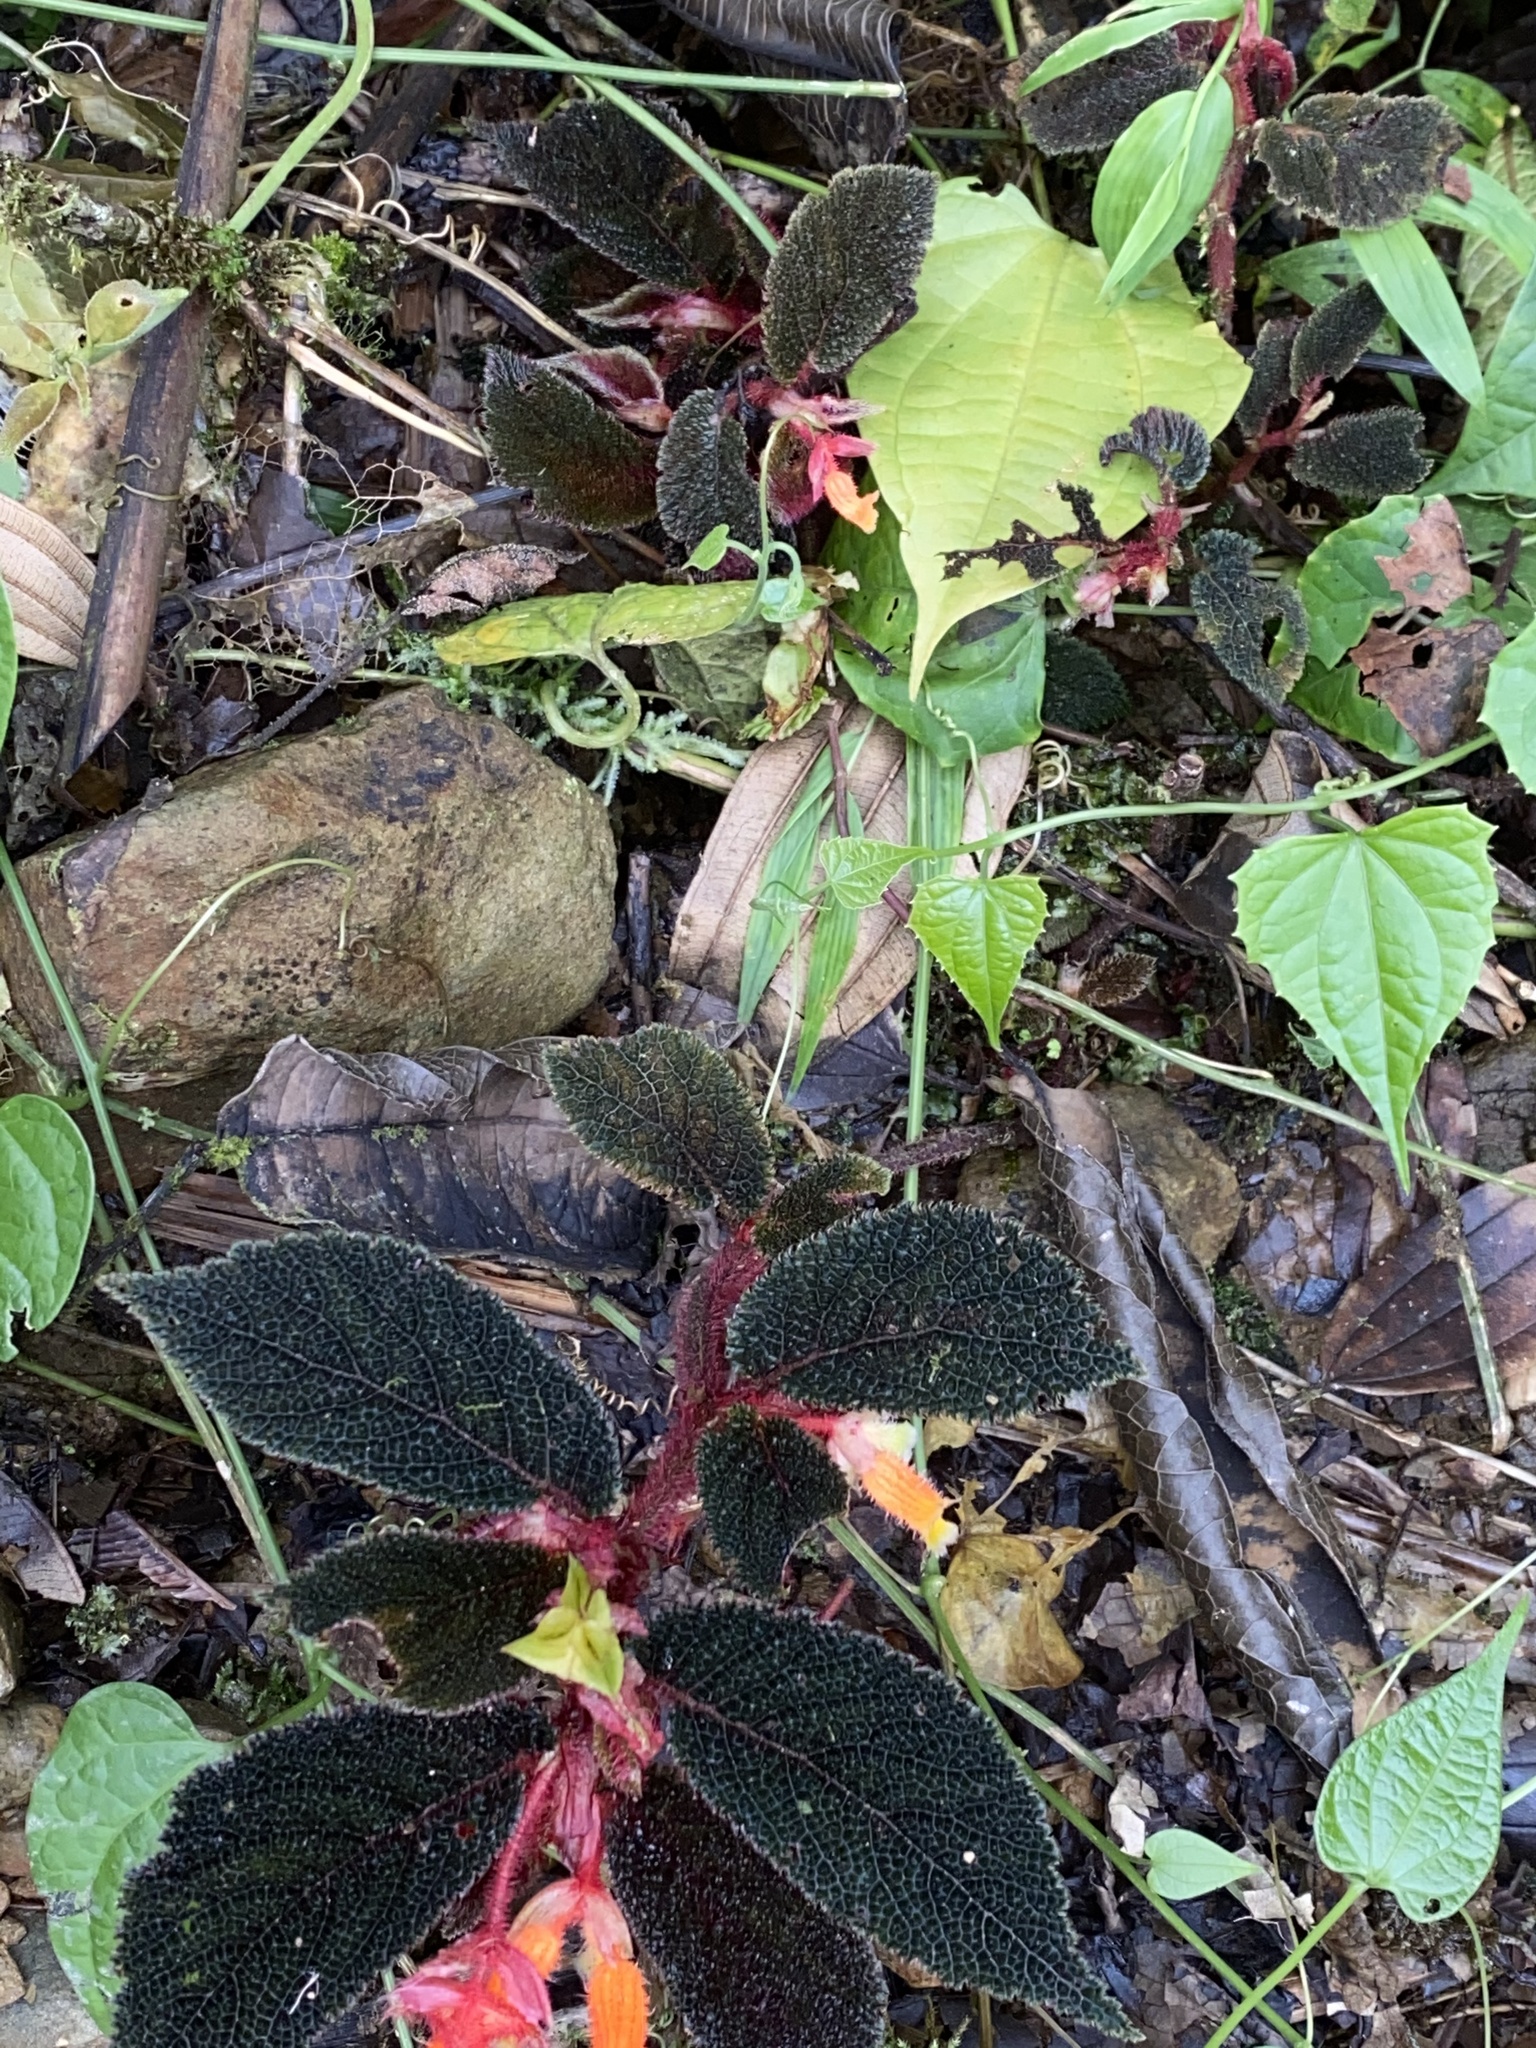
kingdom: Plantae
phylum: Tracheophyta
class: Magnoliopsida
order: Cucurbitales
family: Begoniaceae
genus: Begonia
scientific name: Begonia lehmannii
